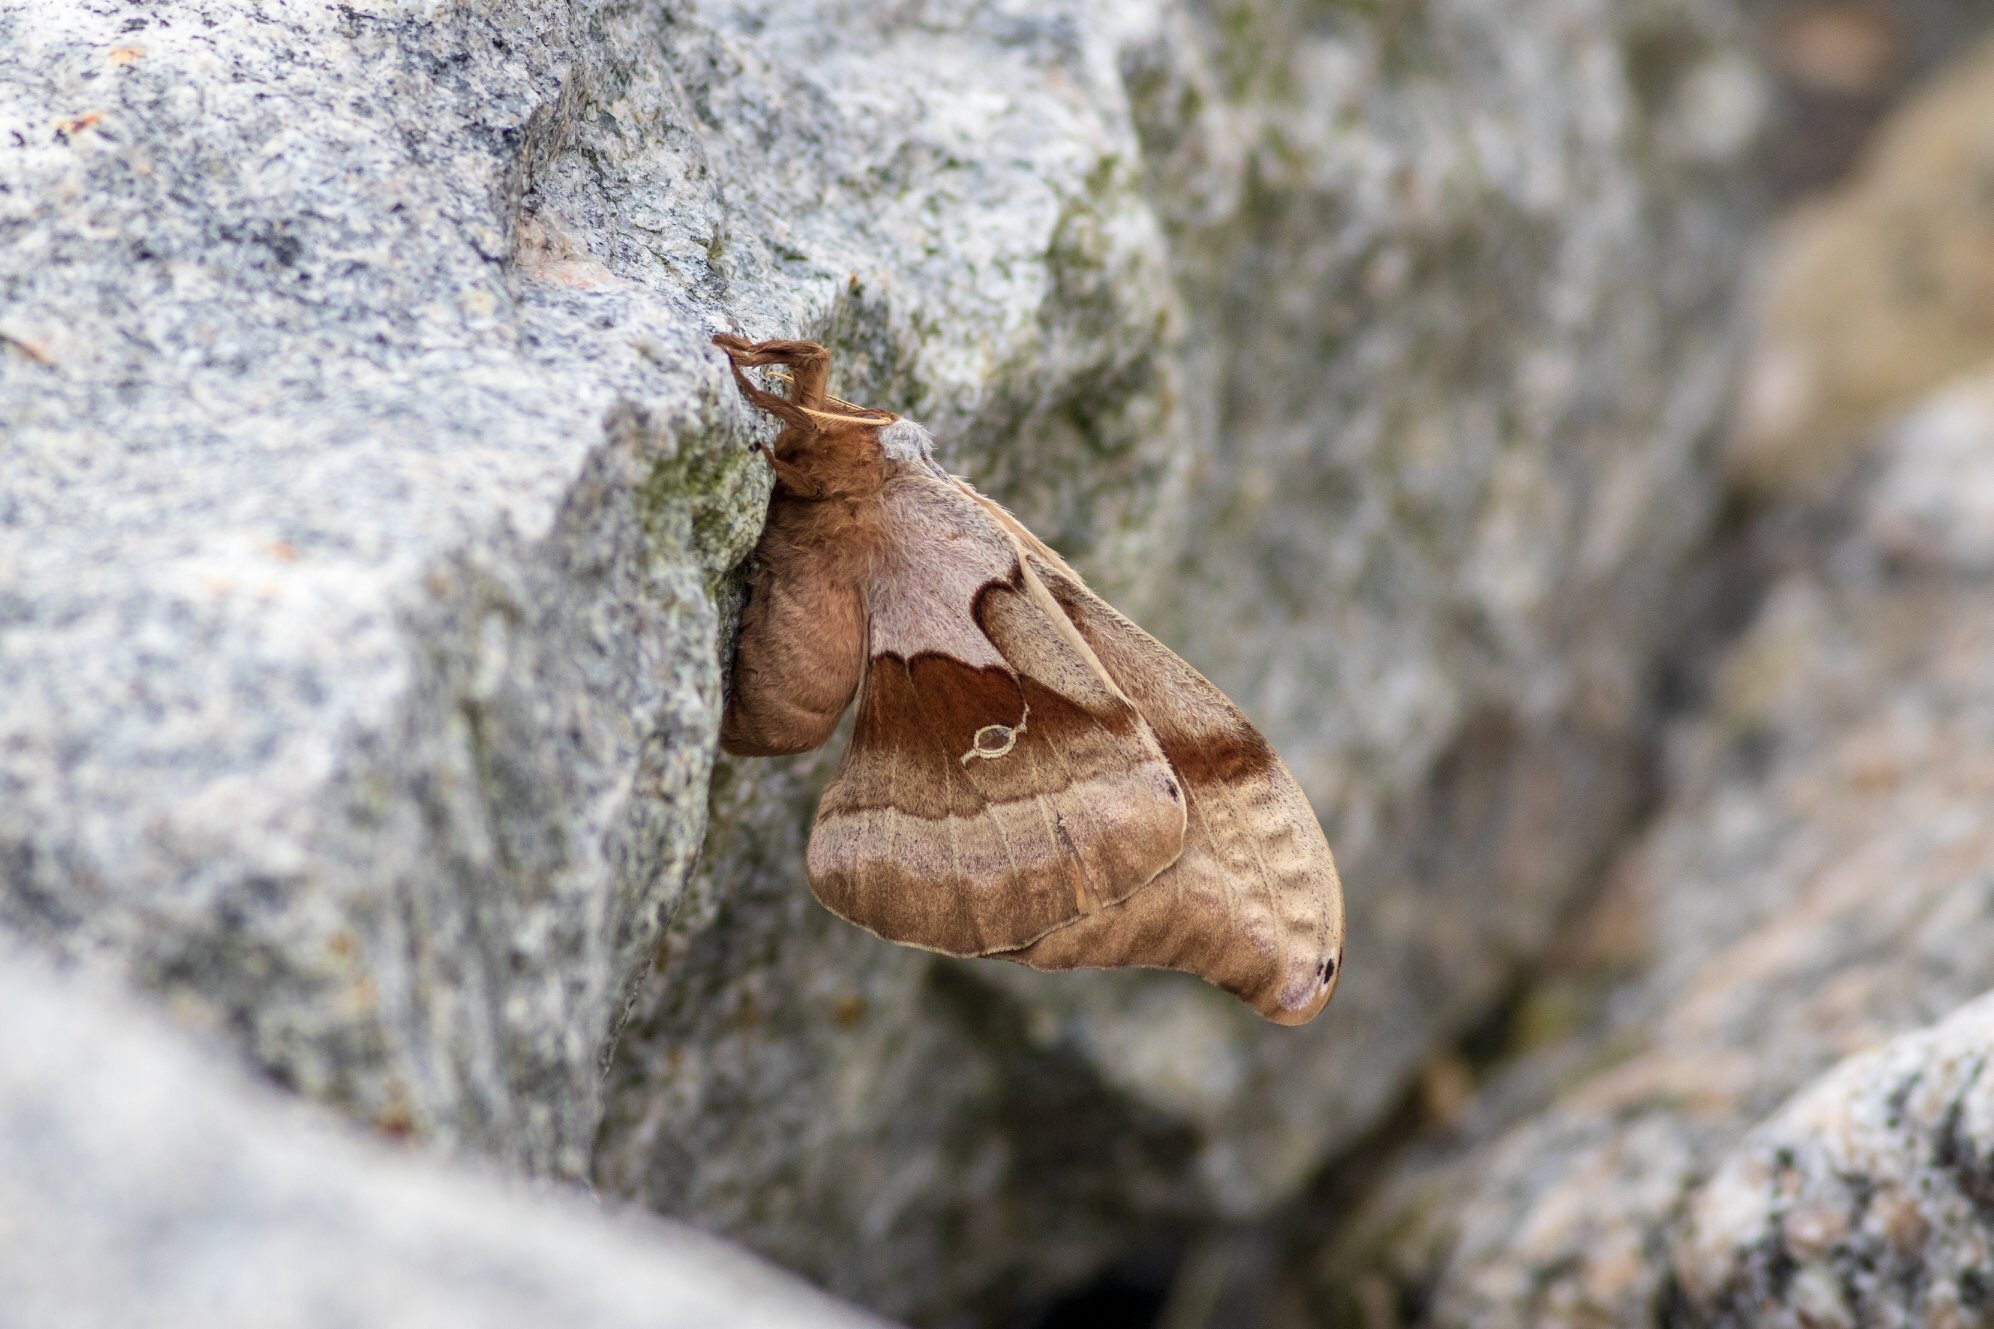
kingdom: Animalia
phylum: Arthropoda
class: Insecta
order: Lepidoptera
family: Saturniidae
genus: Antheraea
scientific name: Antheraea polyphemus
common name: Polyphemus moth
